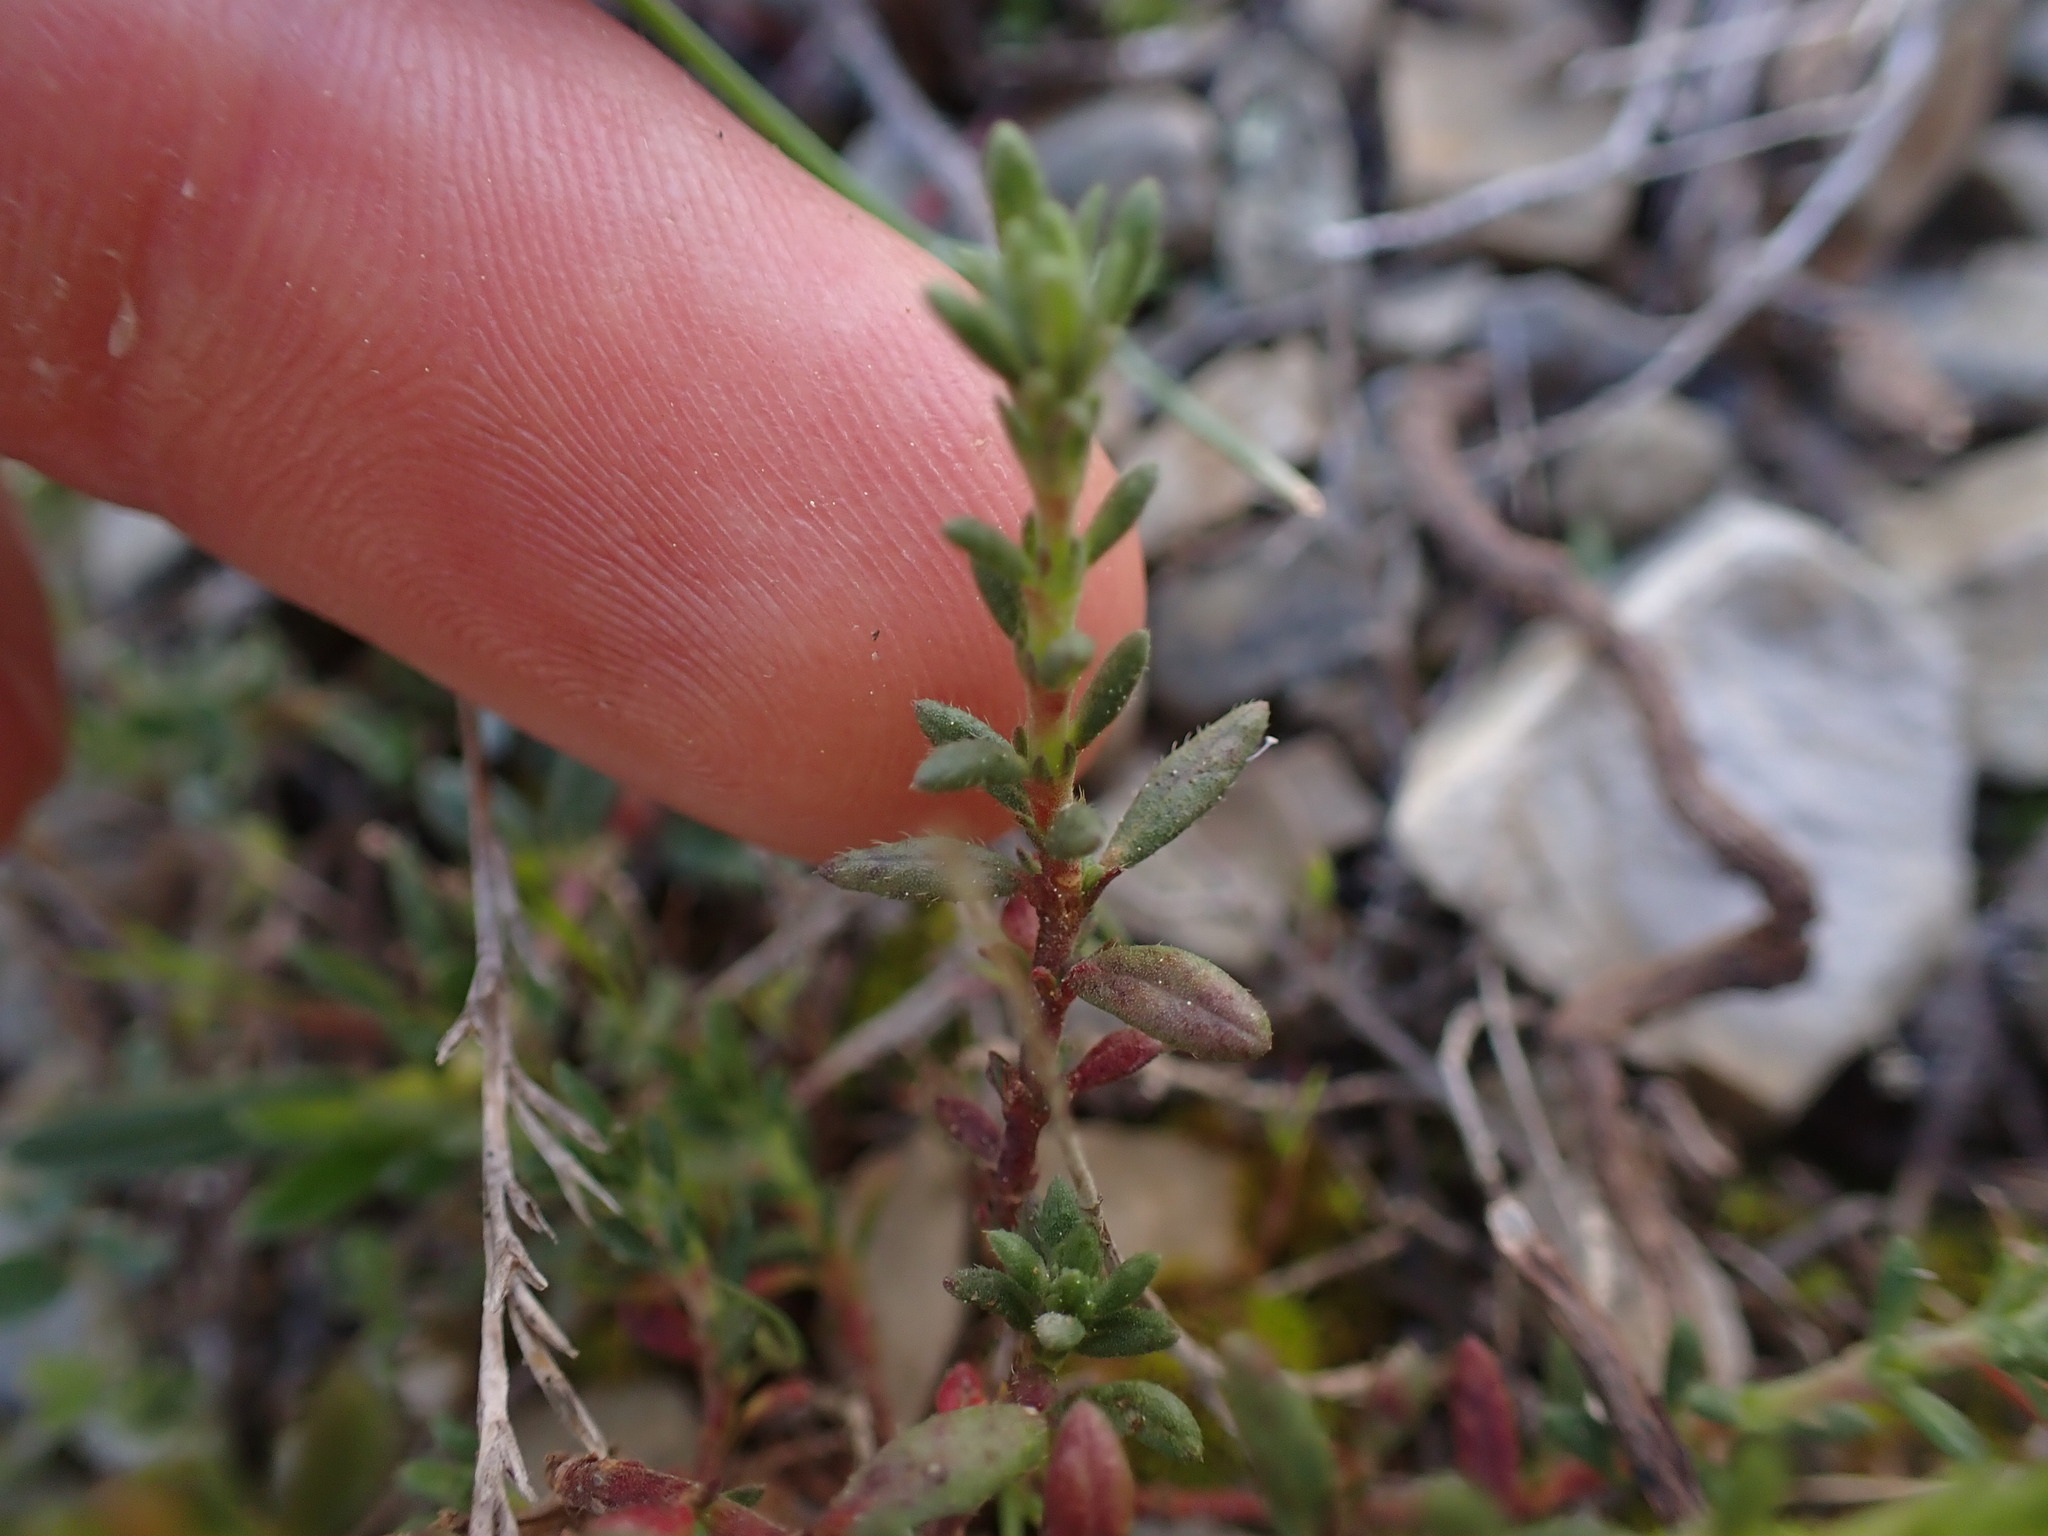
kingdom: Plantae
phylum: Tracheophyta
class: Magnoliopsida
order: Malvales
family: Cistaceae
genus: Fumana
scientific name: Fumana thymifolia
